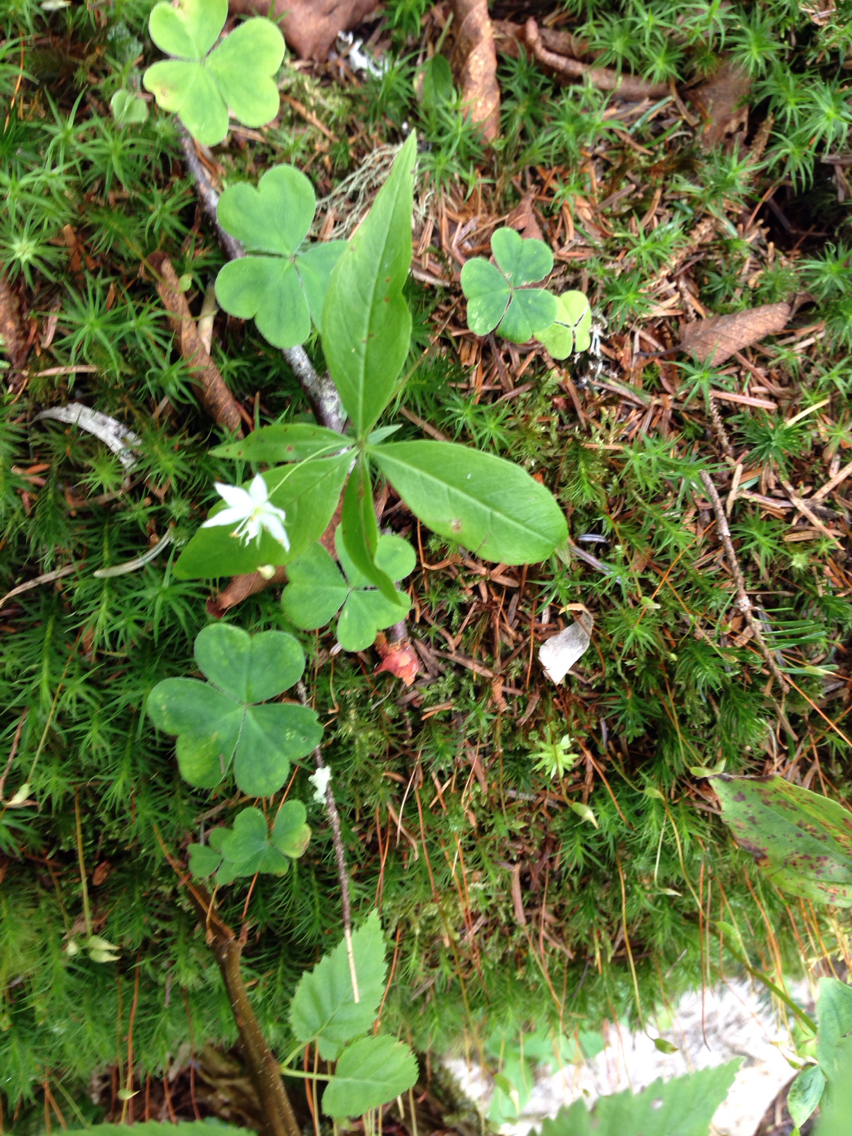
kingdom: Plantae
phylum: Tracheophyta
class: Magnoliopsida
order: Ericales
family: Primulaceae
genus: Lysimachia
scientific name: Lysimachia borealis
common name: American starflower
